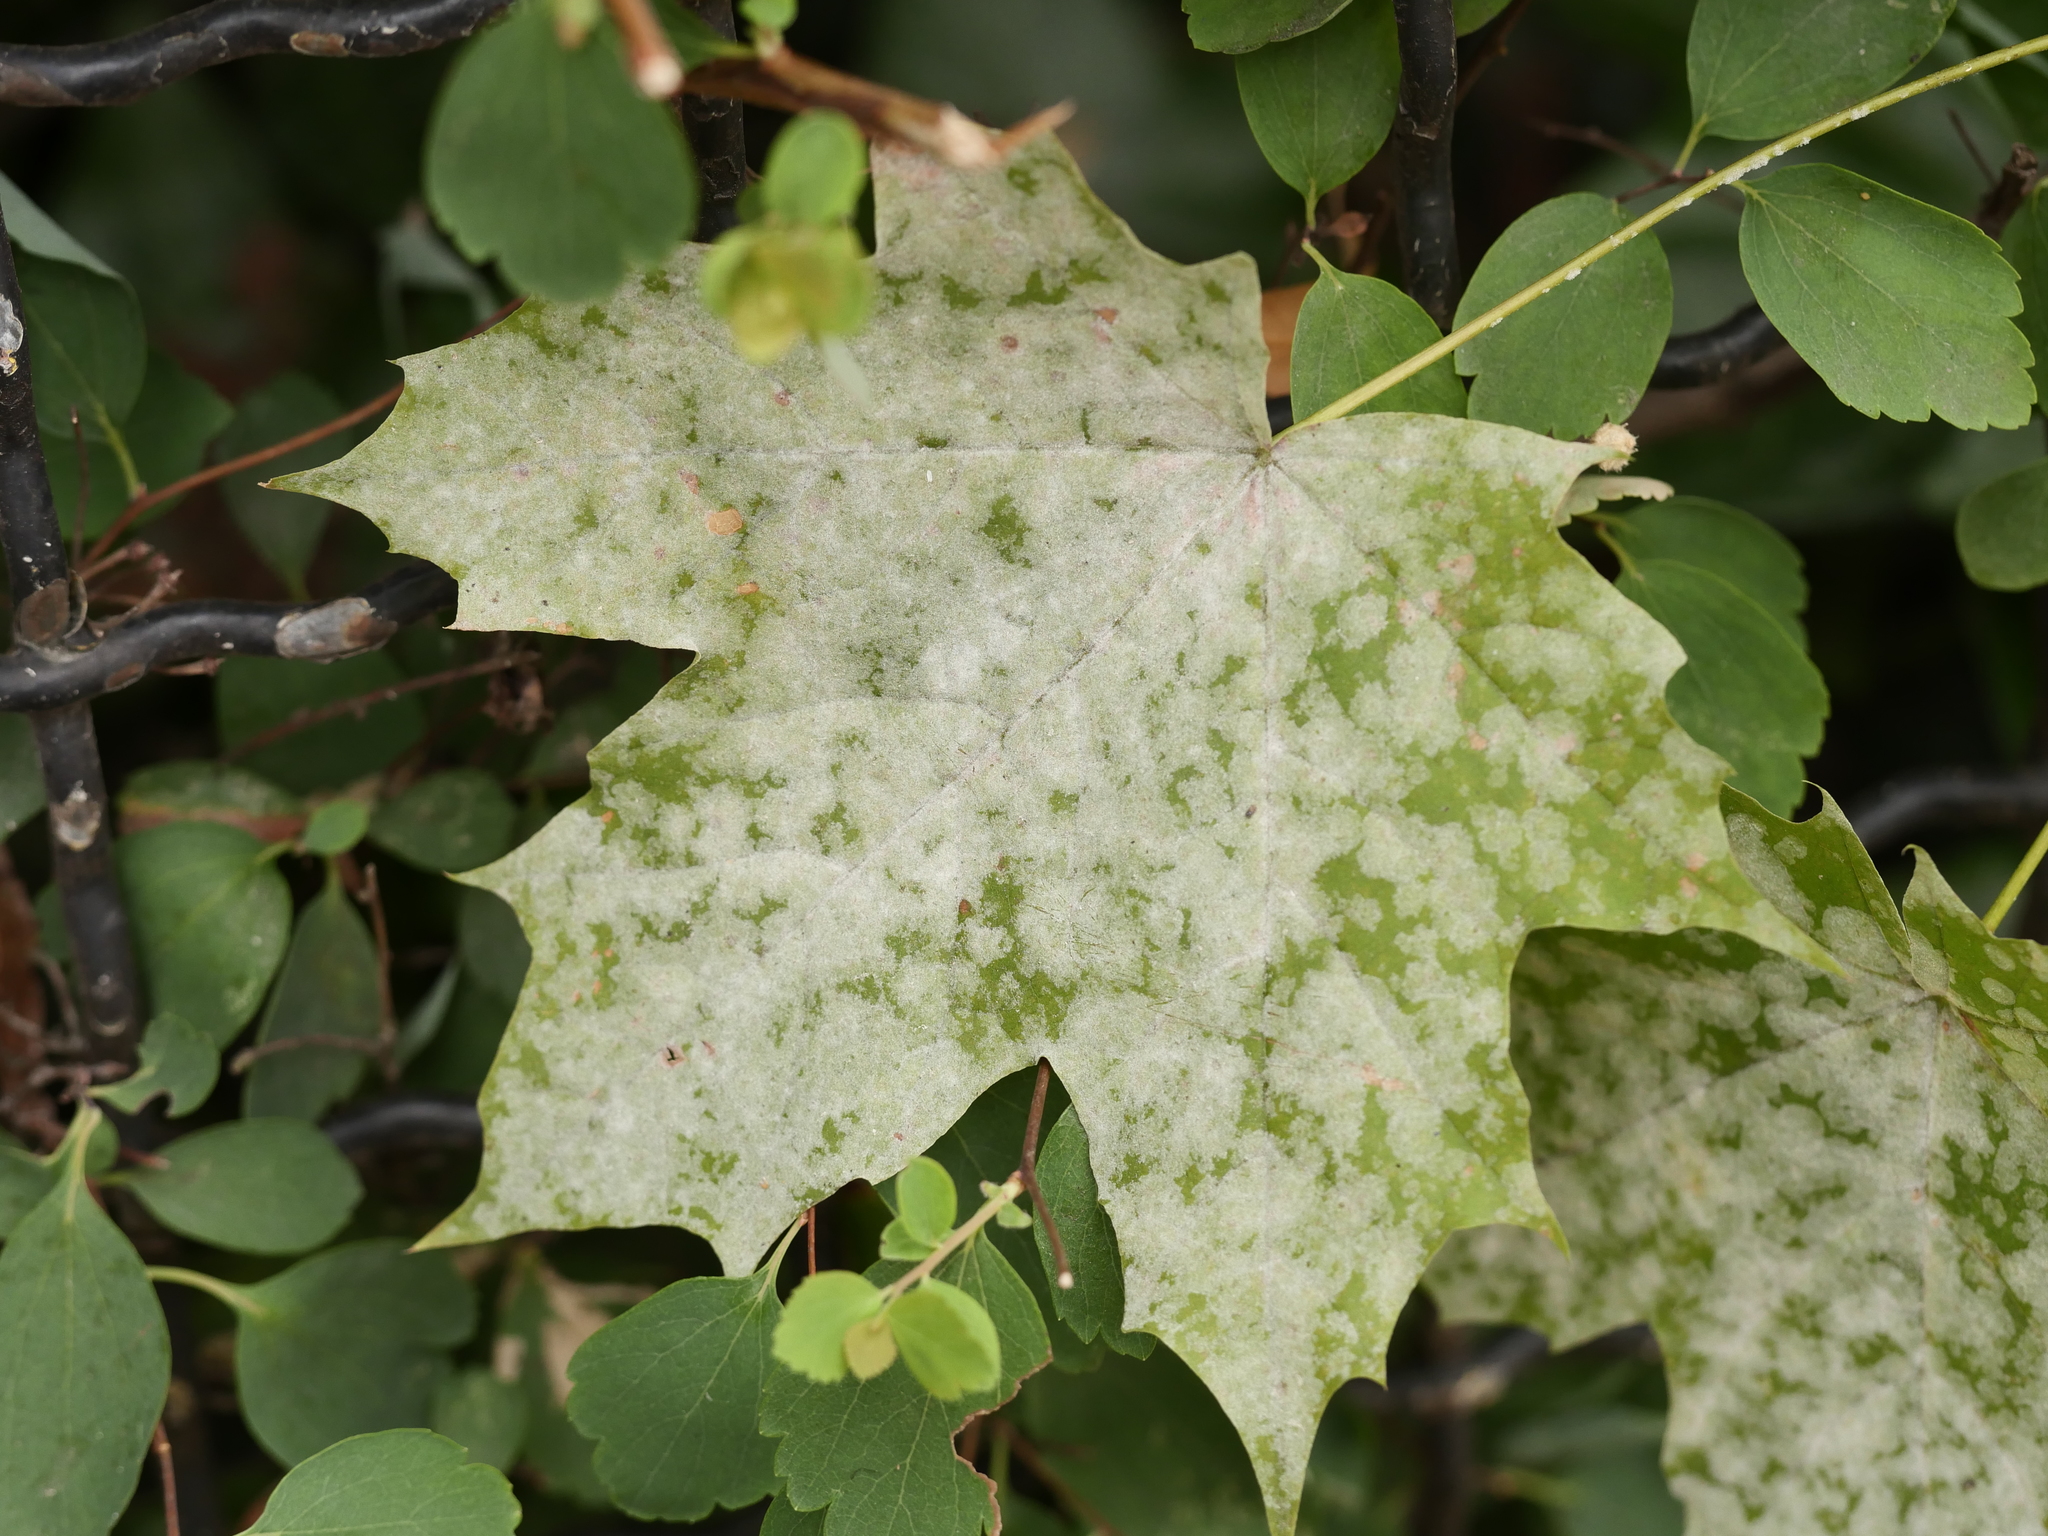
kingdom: Plantae
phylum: Tracheophyta
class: Magnoliopsida
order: Sapindales
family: Sapindaceae
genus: Acer
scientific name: Acer platanoides
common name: Norway maple
